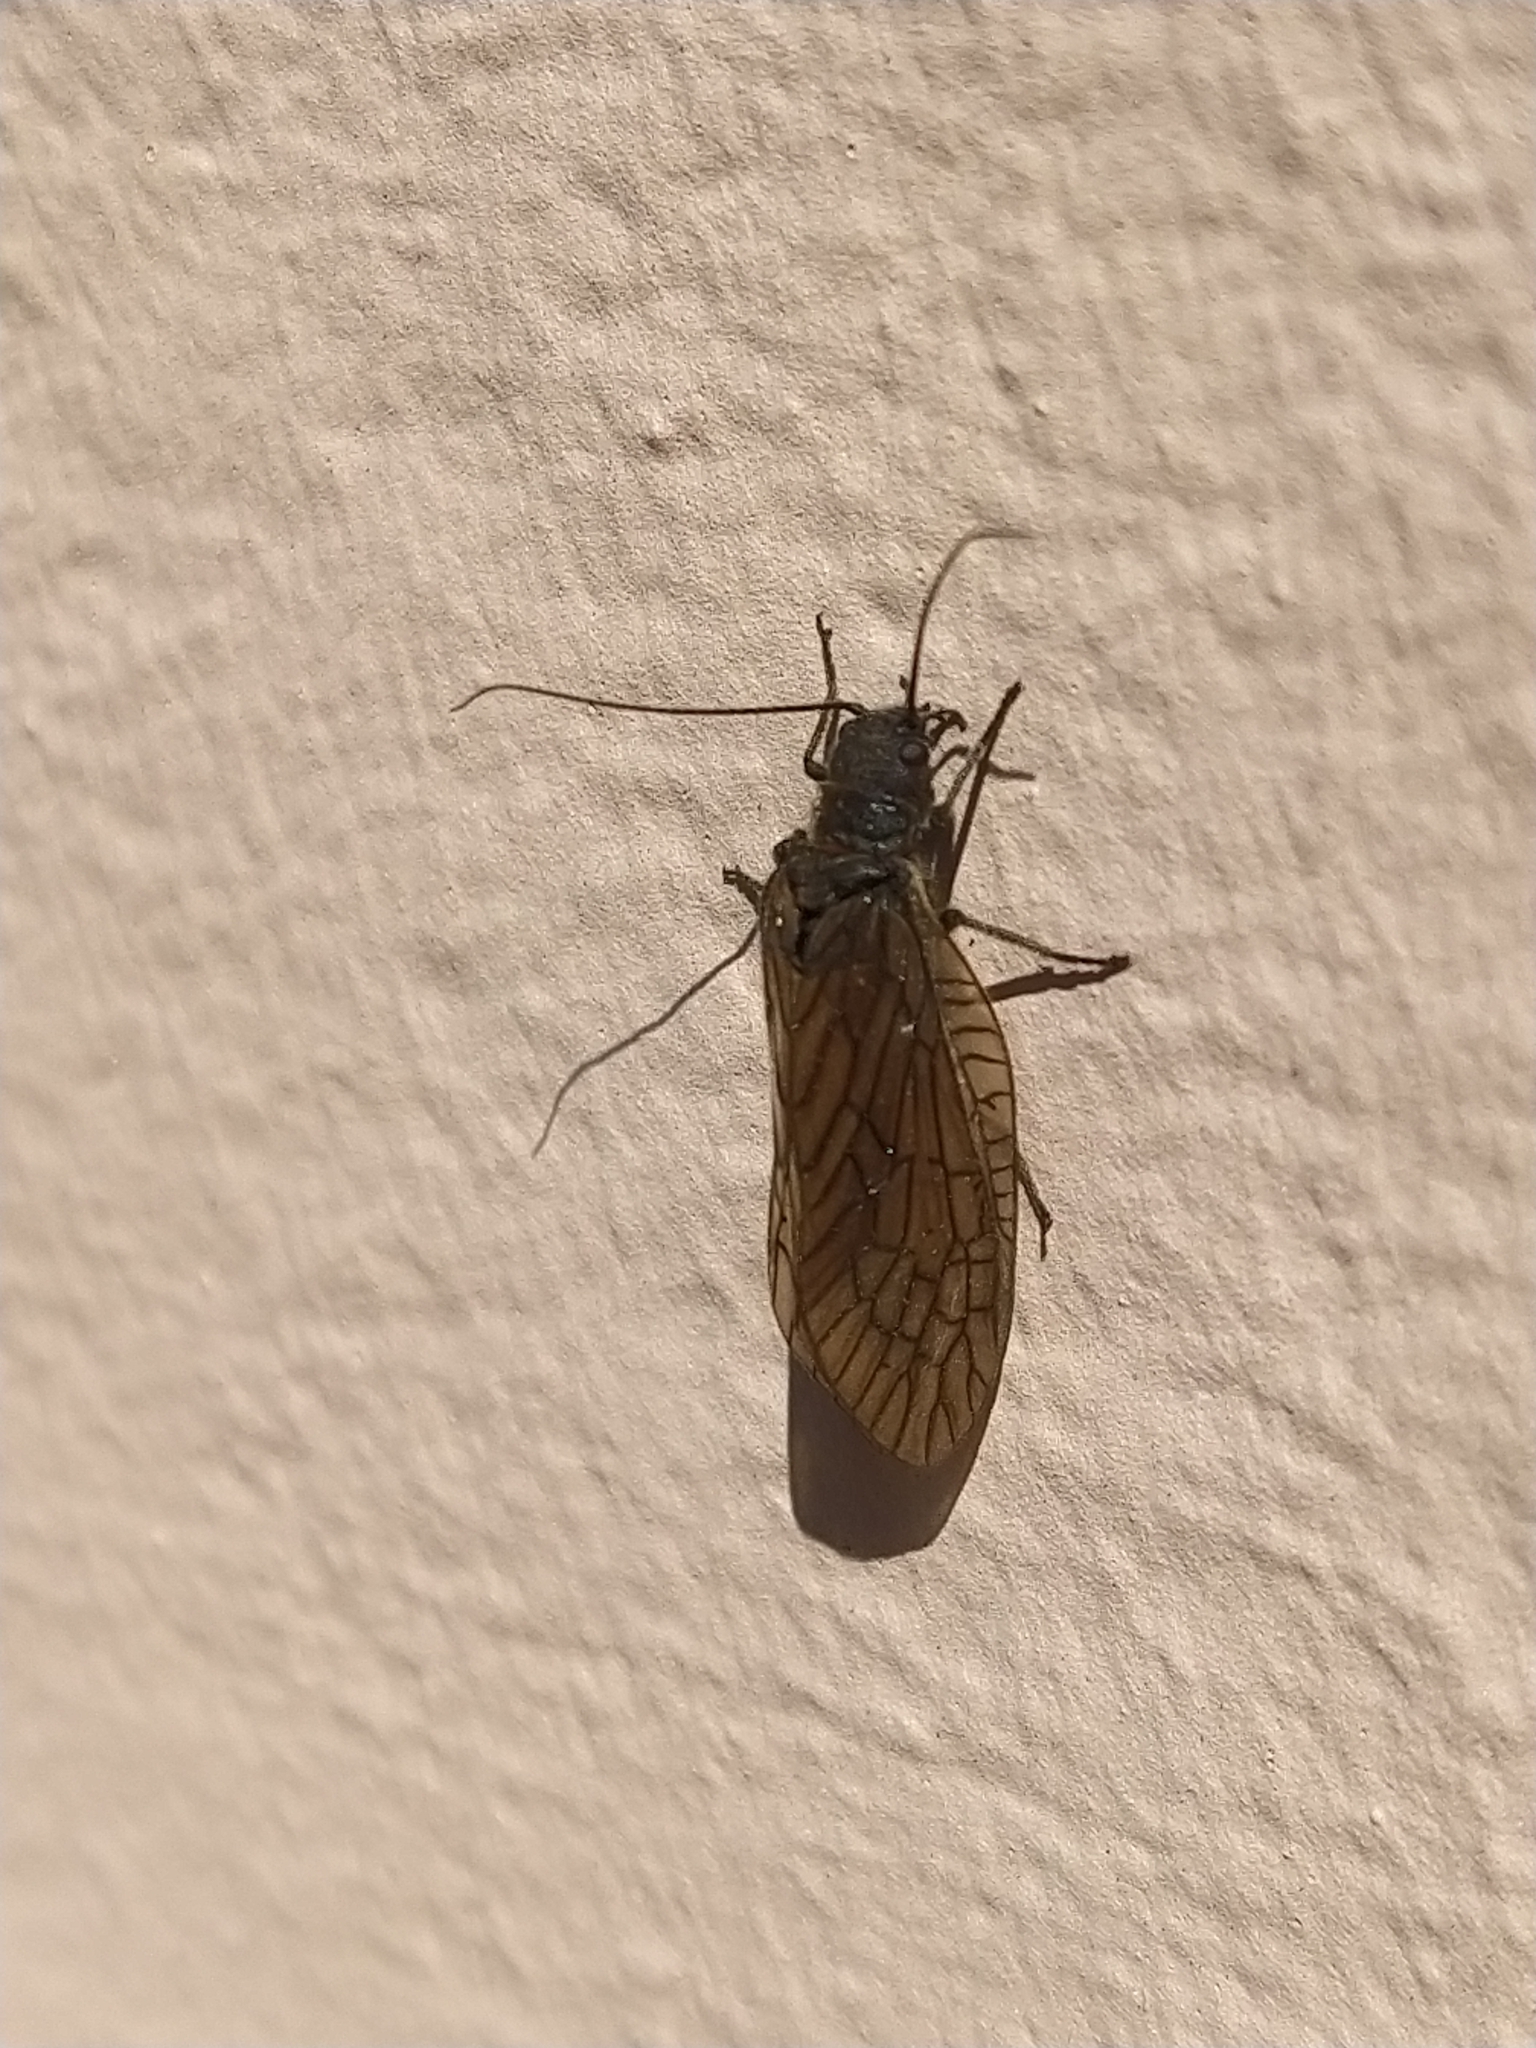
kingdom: Animalia
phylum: Arthropoda
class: Insecta
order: Megaloptera
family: Sialidae
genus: Sialis
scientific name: Sialis
